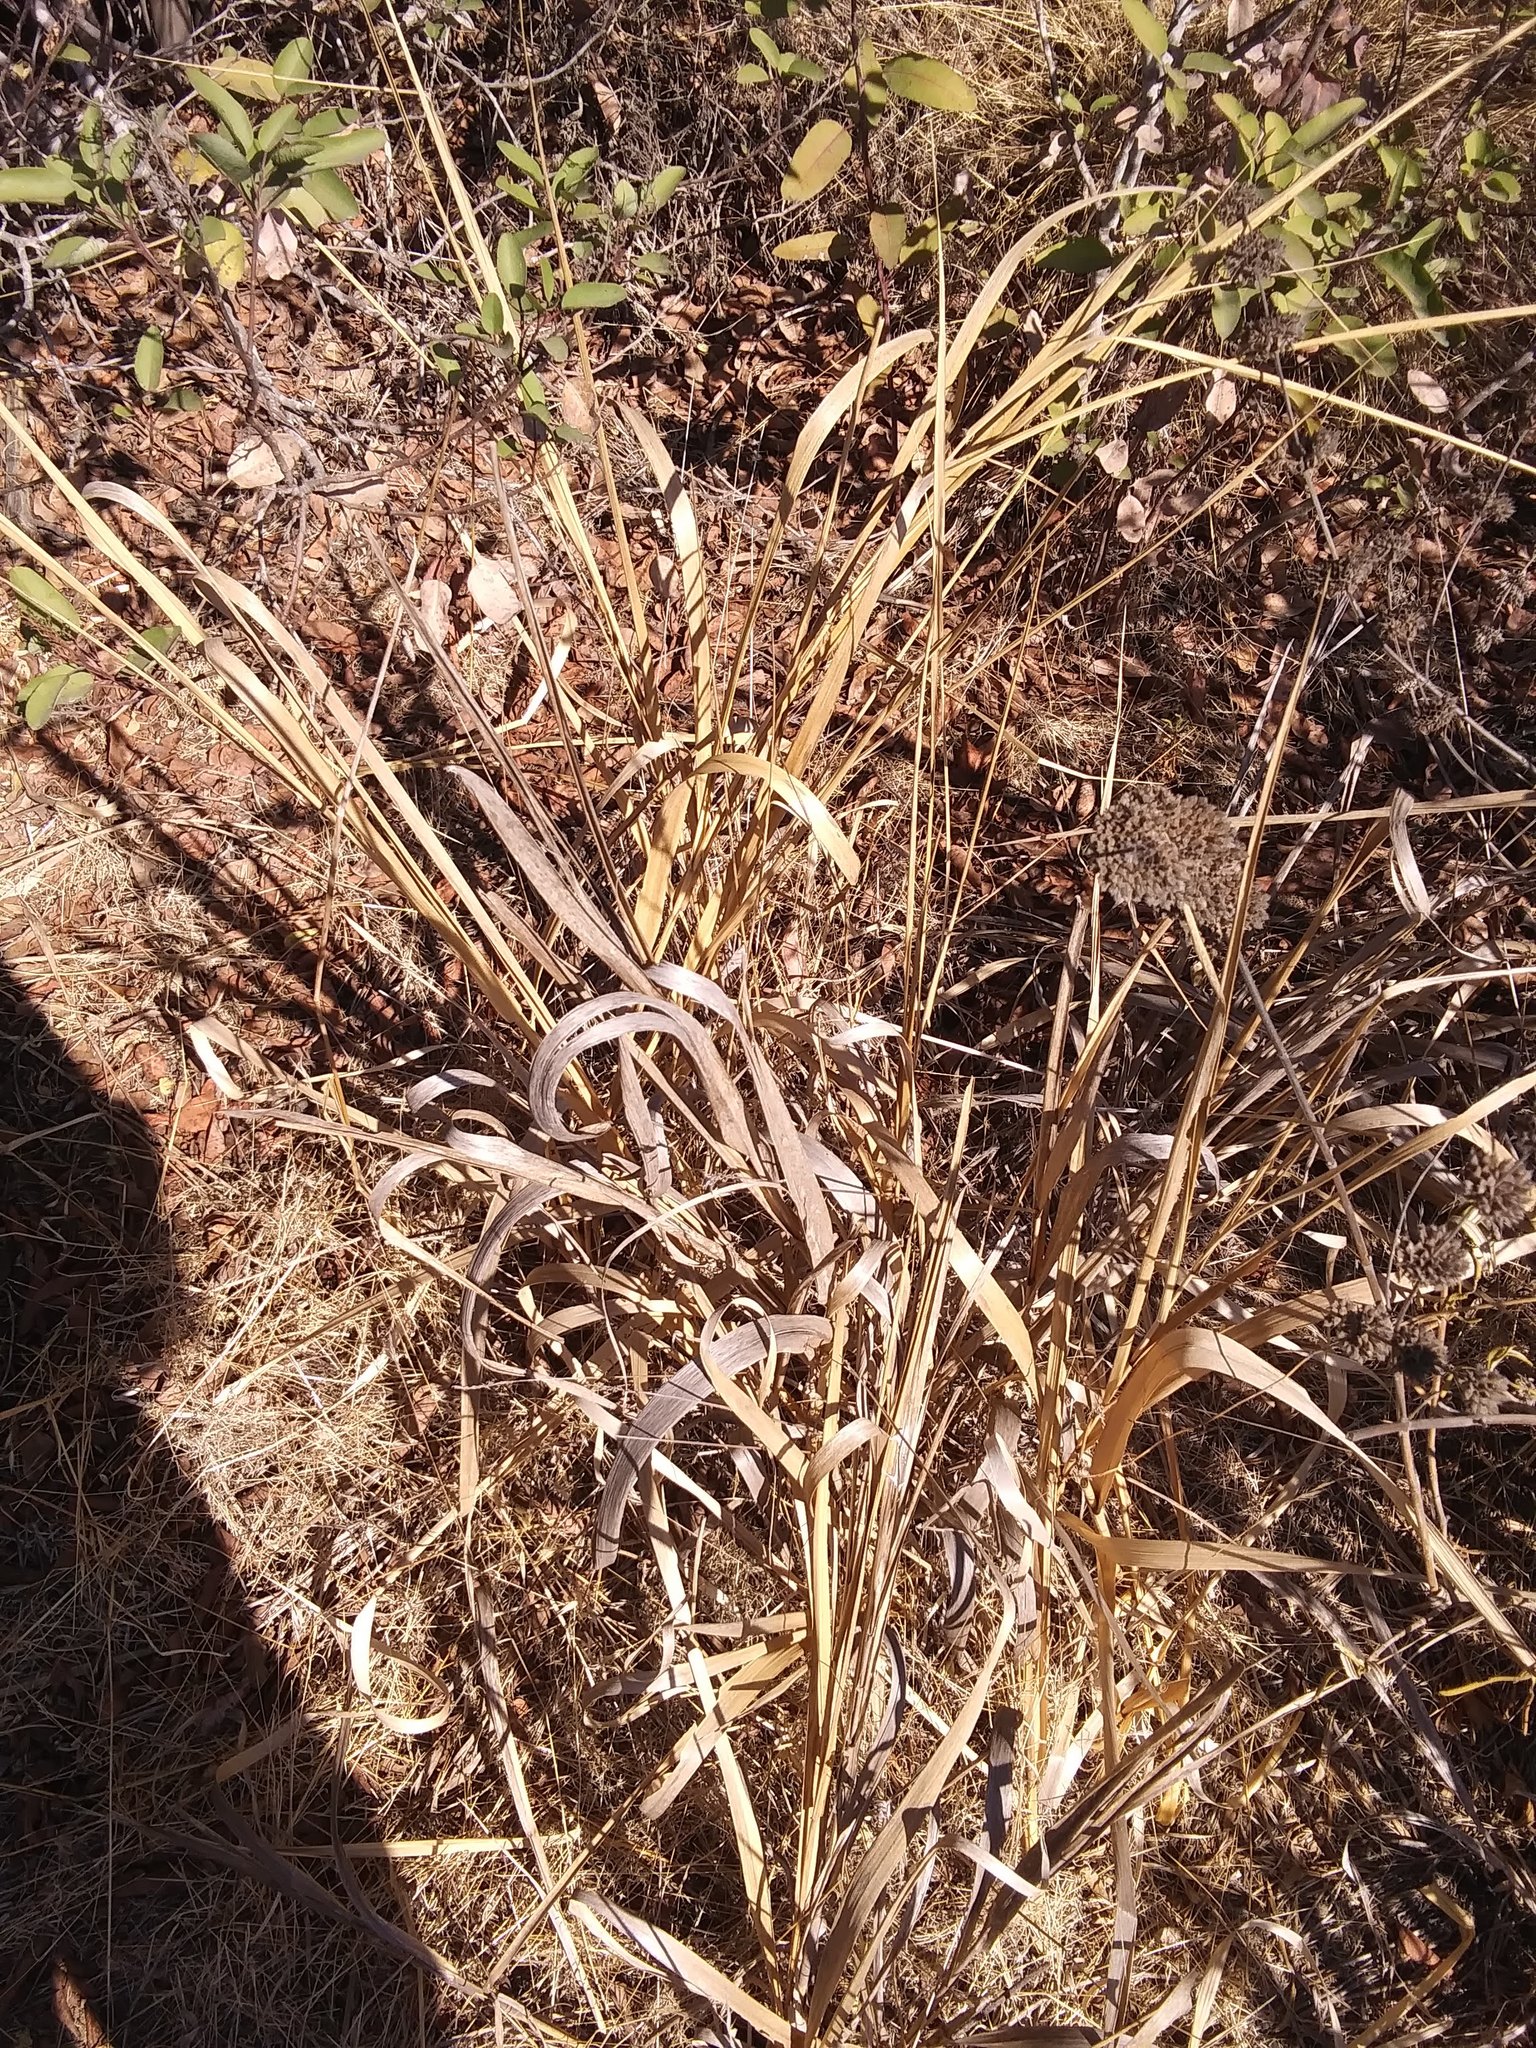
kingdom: Plantae
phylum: Tracheophyta
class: Liliopsida
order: Poales
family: Poaceae
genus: Leymus
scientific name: Leymus condensatus
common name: Giant wild rye
